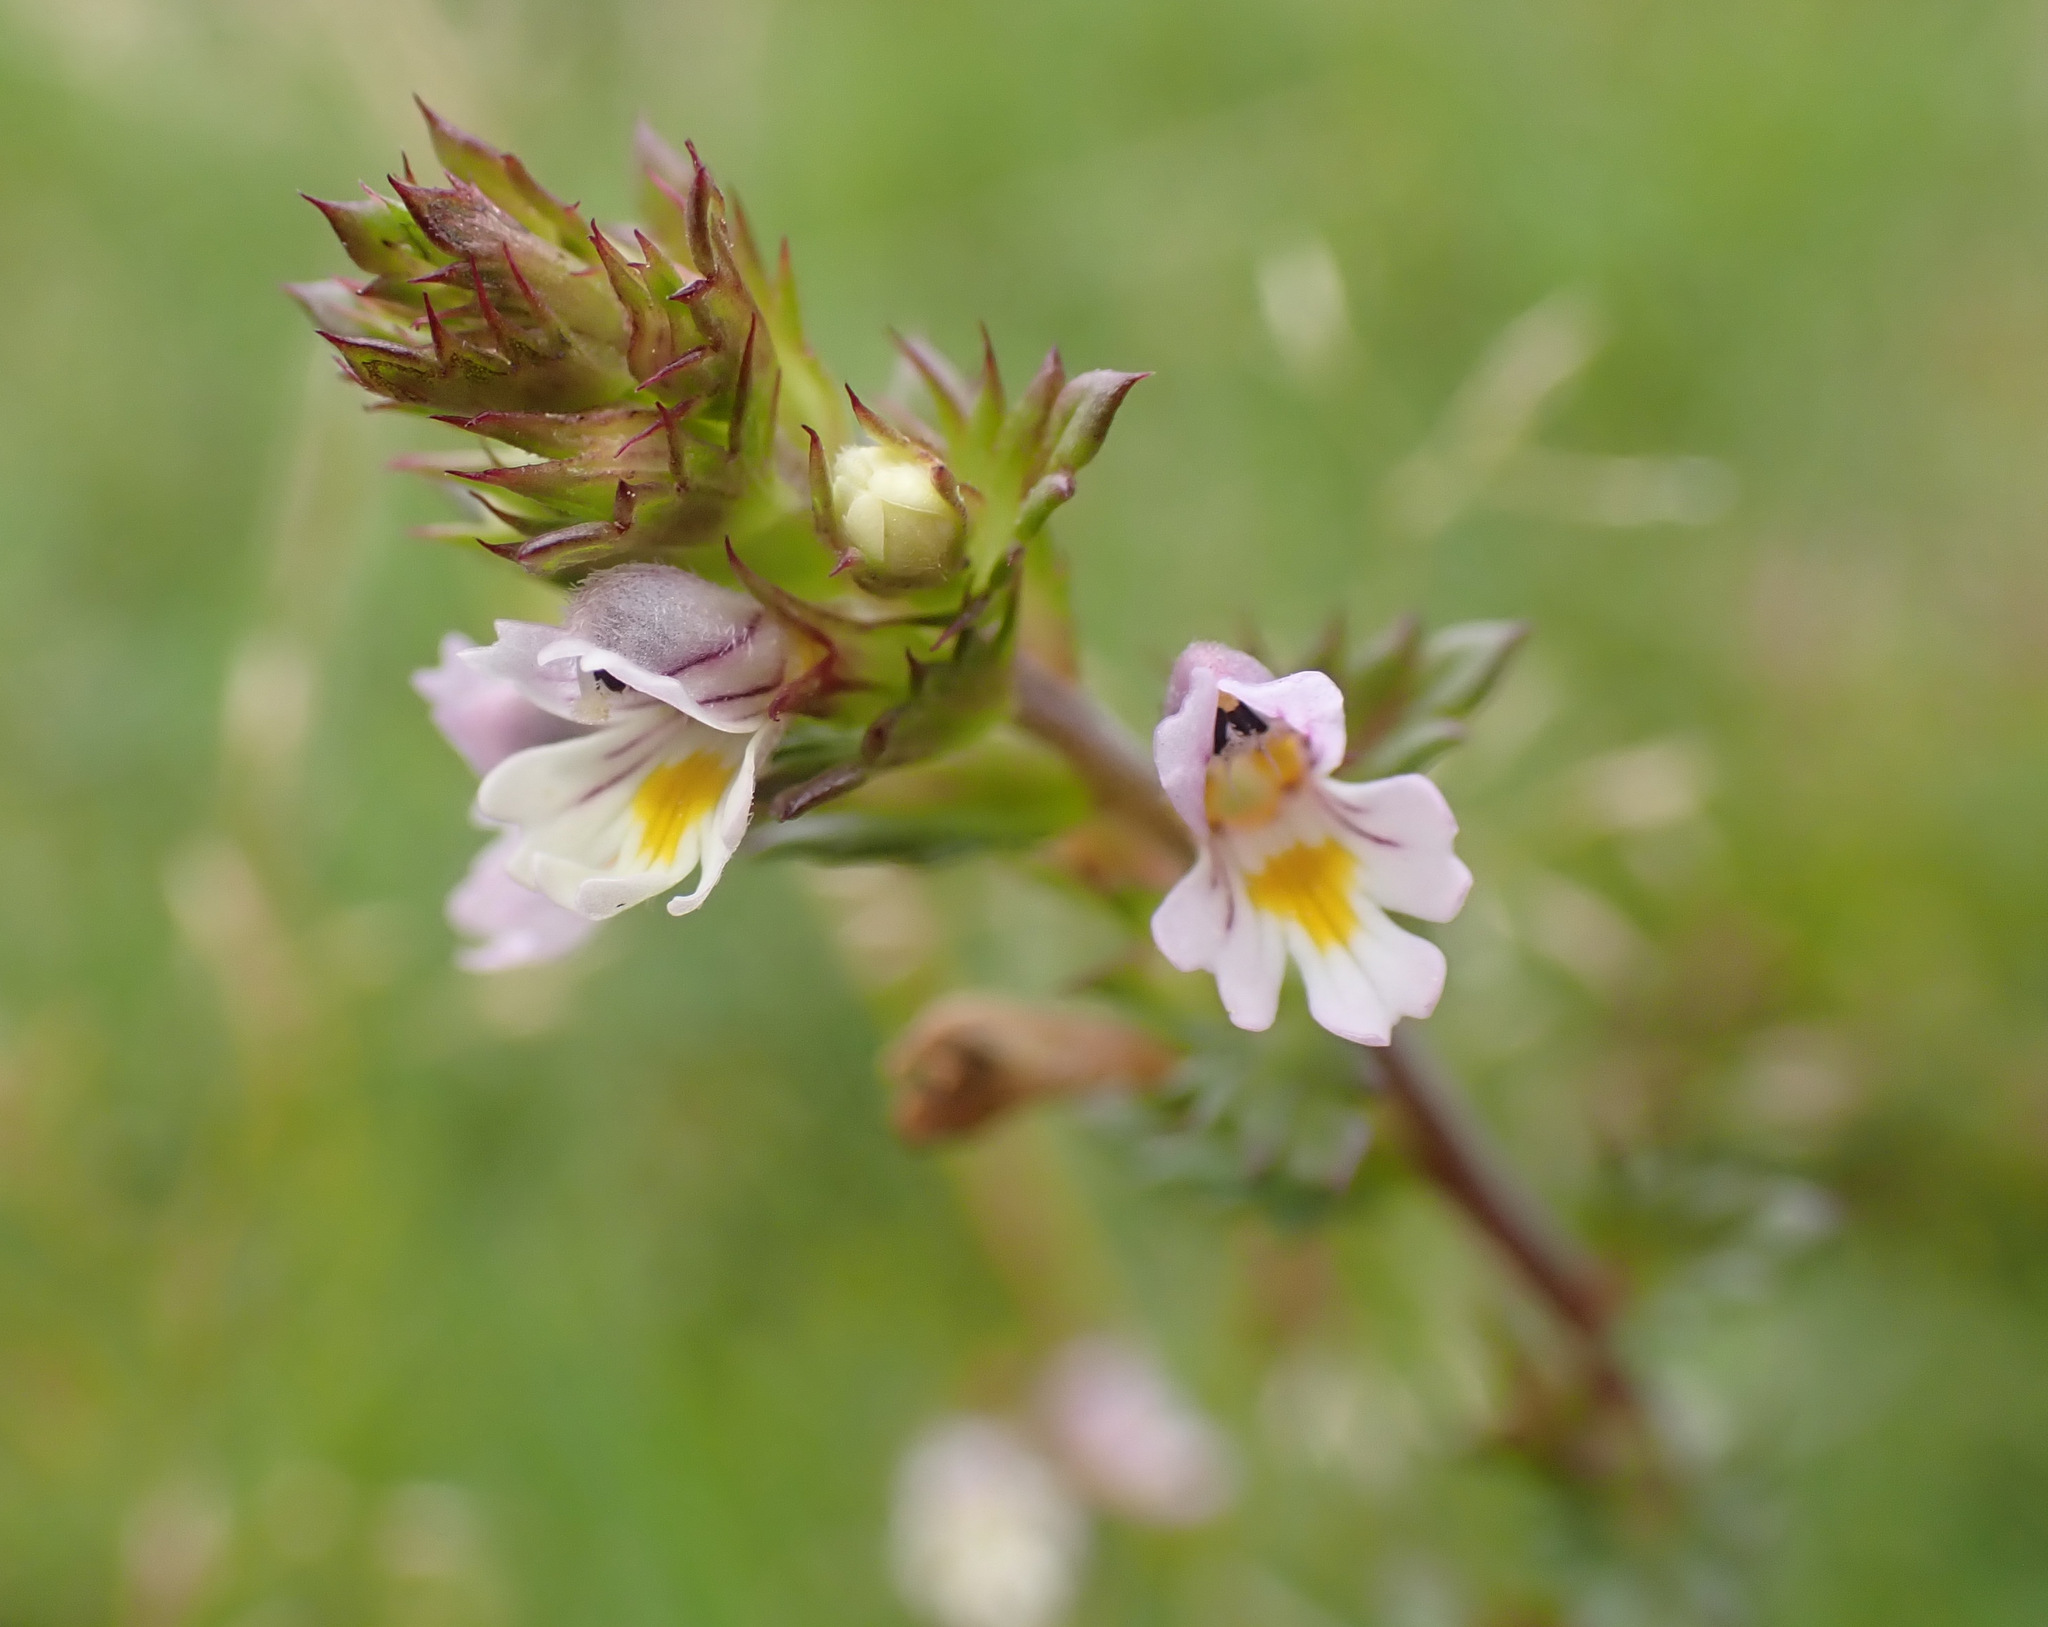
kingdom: Plantae
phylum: Tracheophyta
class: Magnoliopsida
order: Lamiales
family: Orobanchaceae
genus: Euphrasia
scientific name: Euphrasia stricta
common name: Drug eyebright
